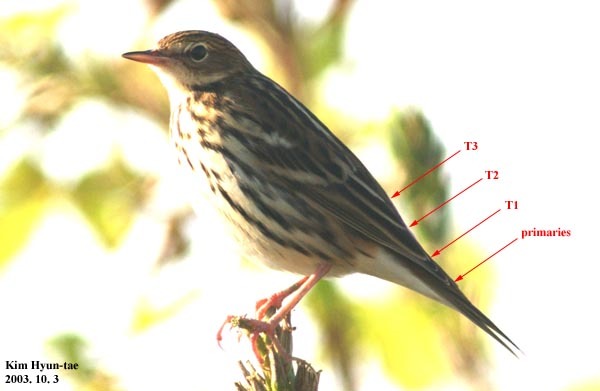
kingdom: Animalia
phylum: Chordata
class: Aves
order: Passeriformes
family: Motacillidae
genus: Anthus
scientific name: Anthus gustavi
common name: Pechora pipit
